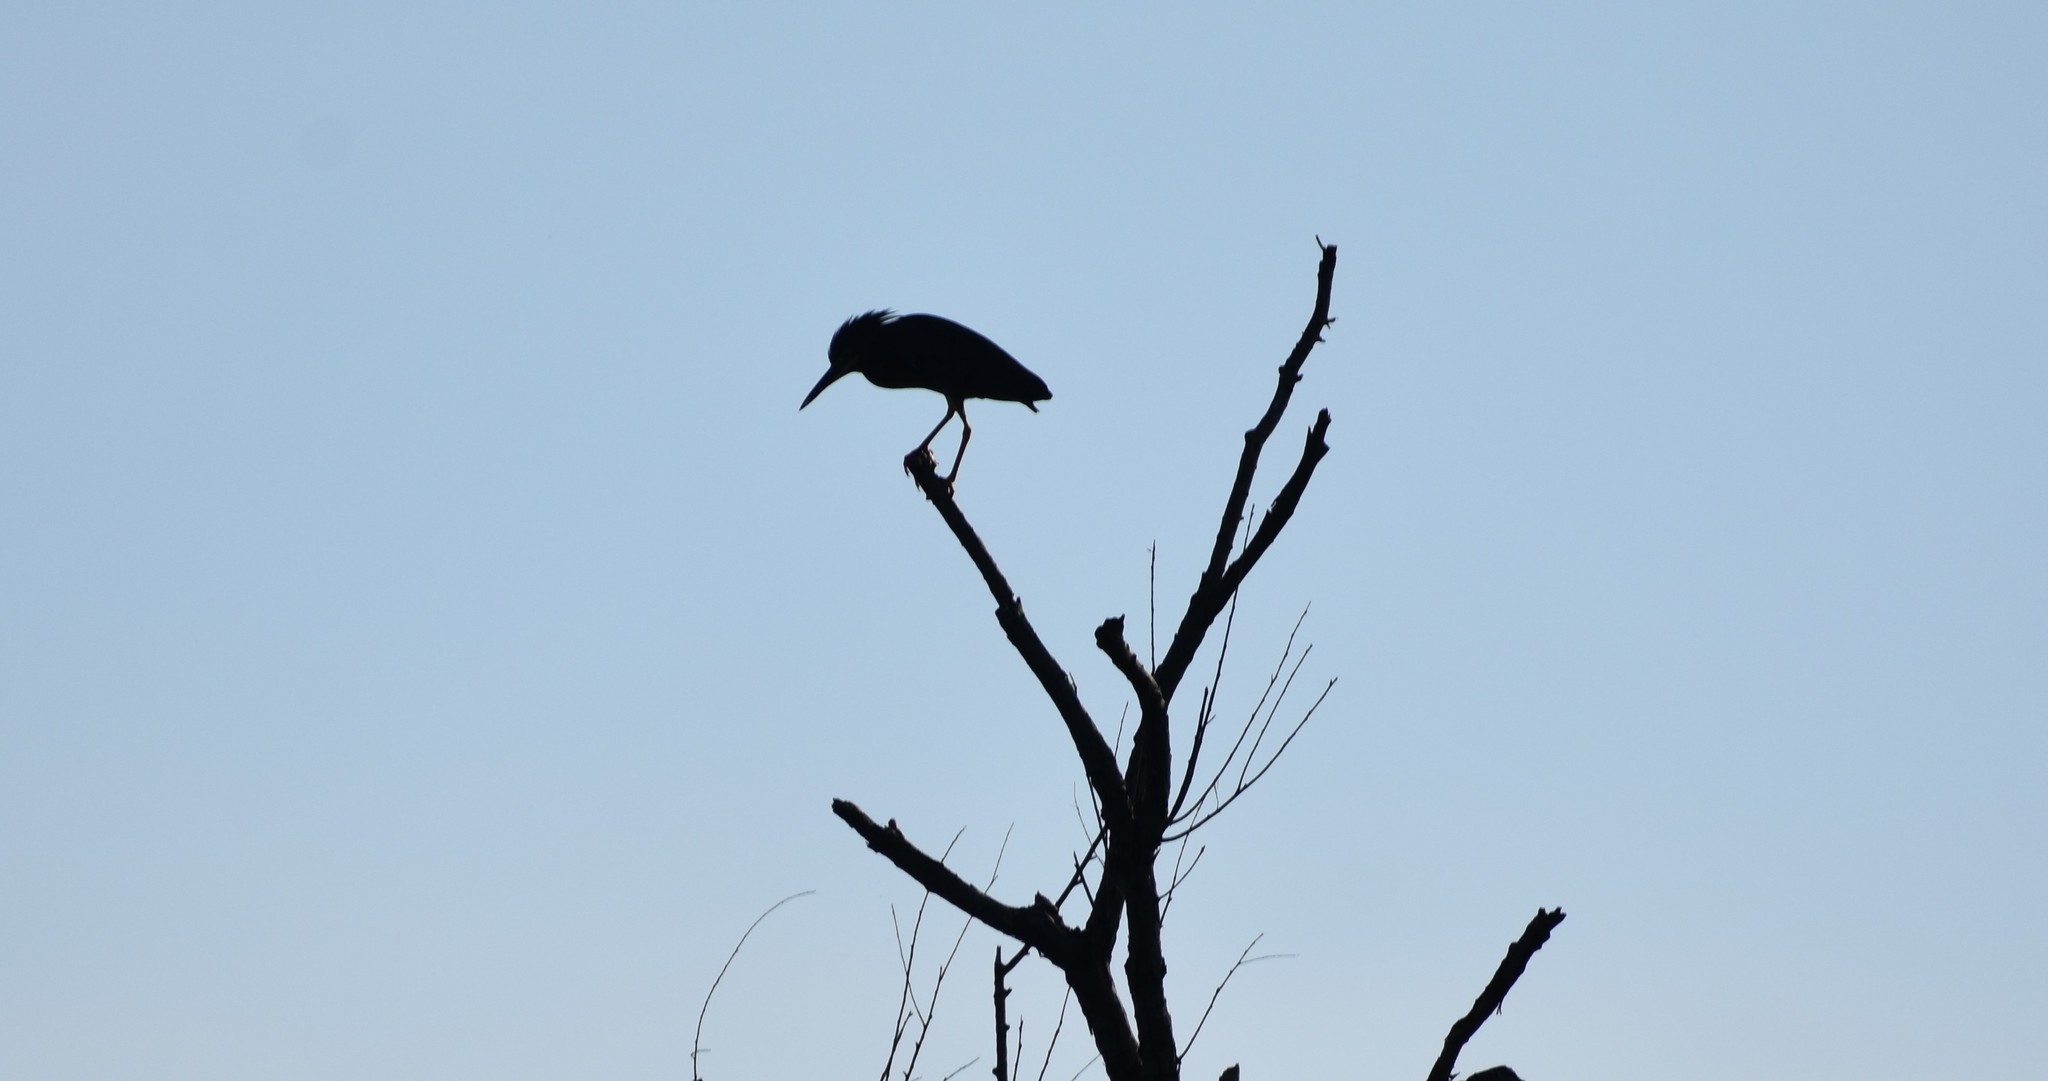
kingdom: Animalia
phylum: Chordata
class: Aves
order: Pelecaniformes
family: Ardeidae
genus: Butorides
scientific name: Butorides virescens
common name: Green heron
